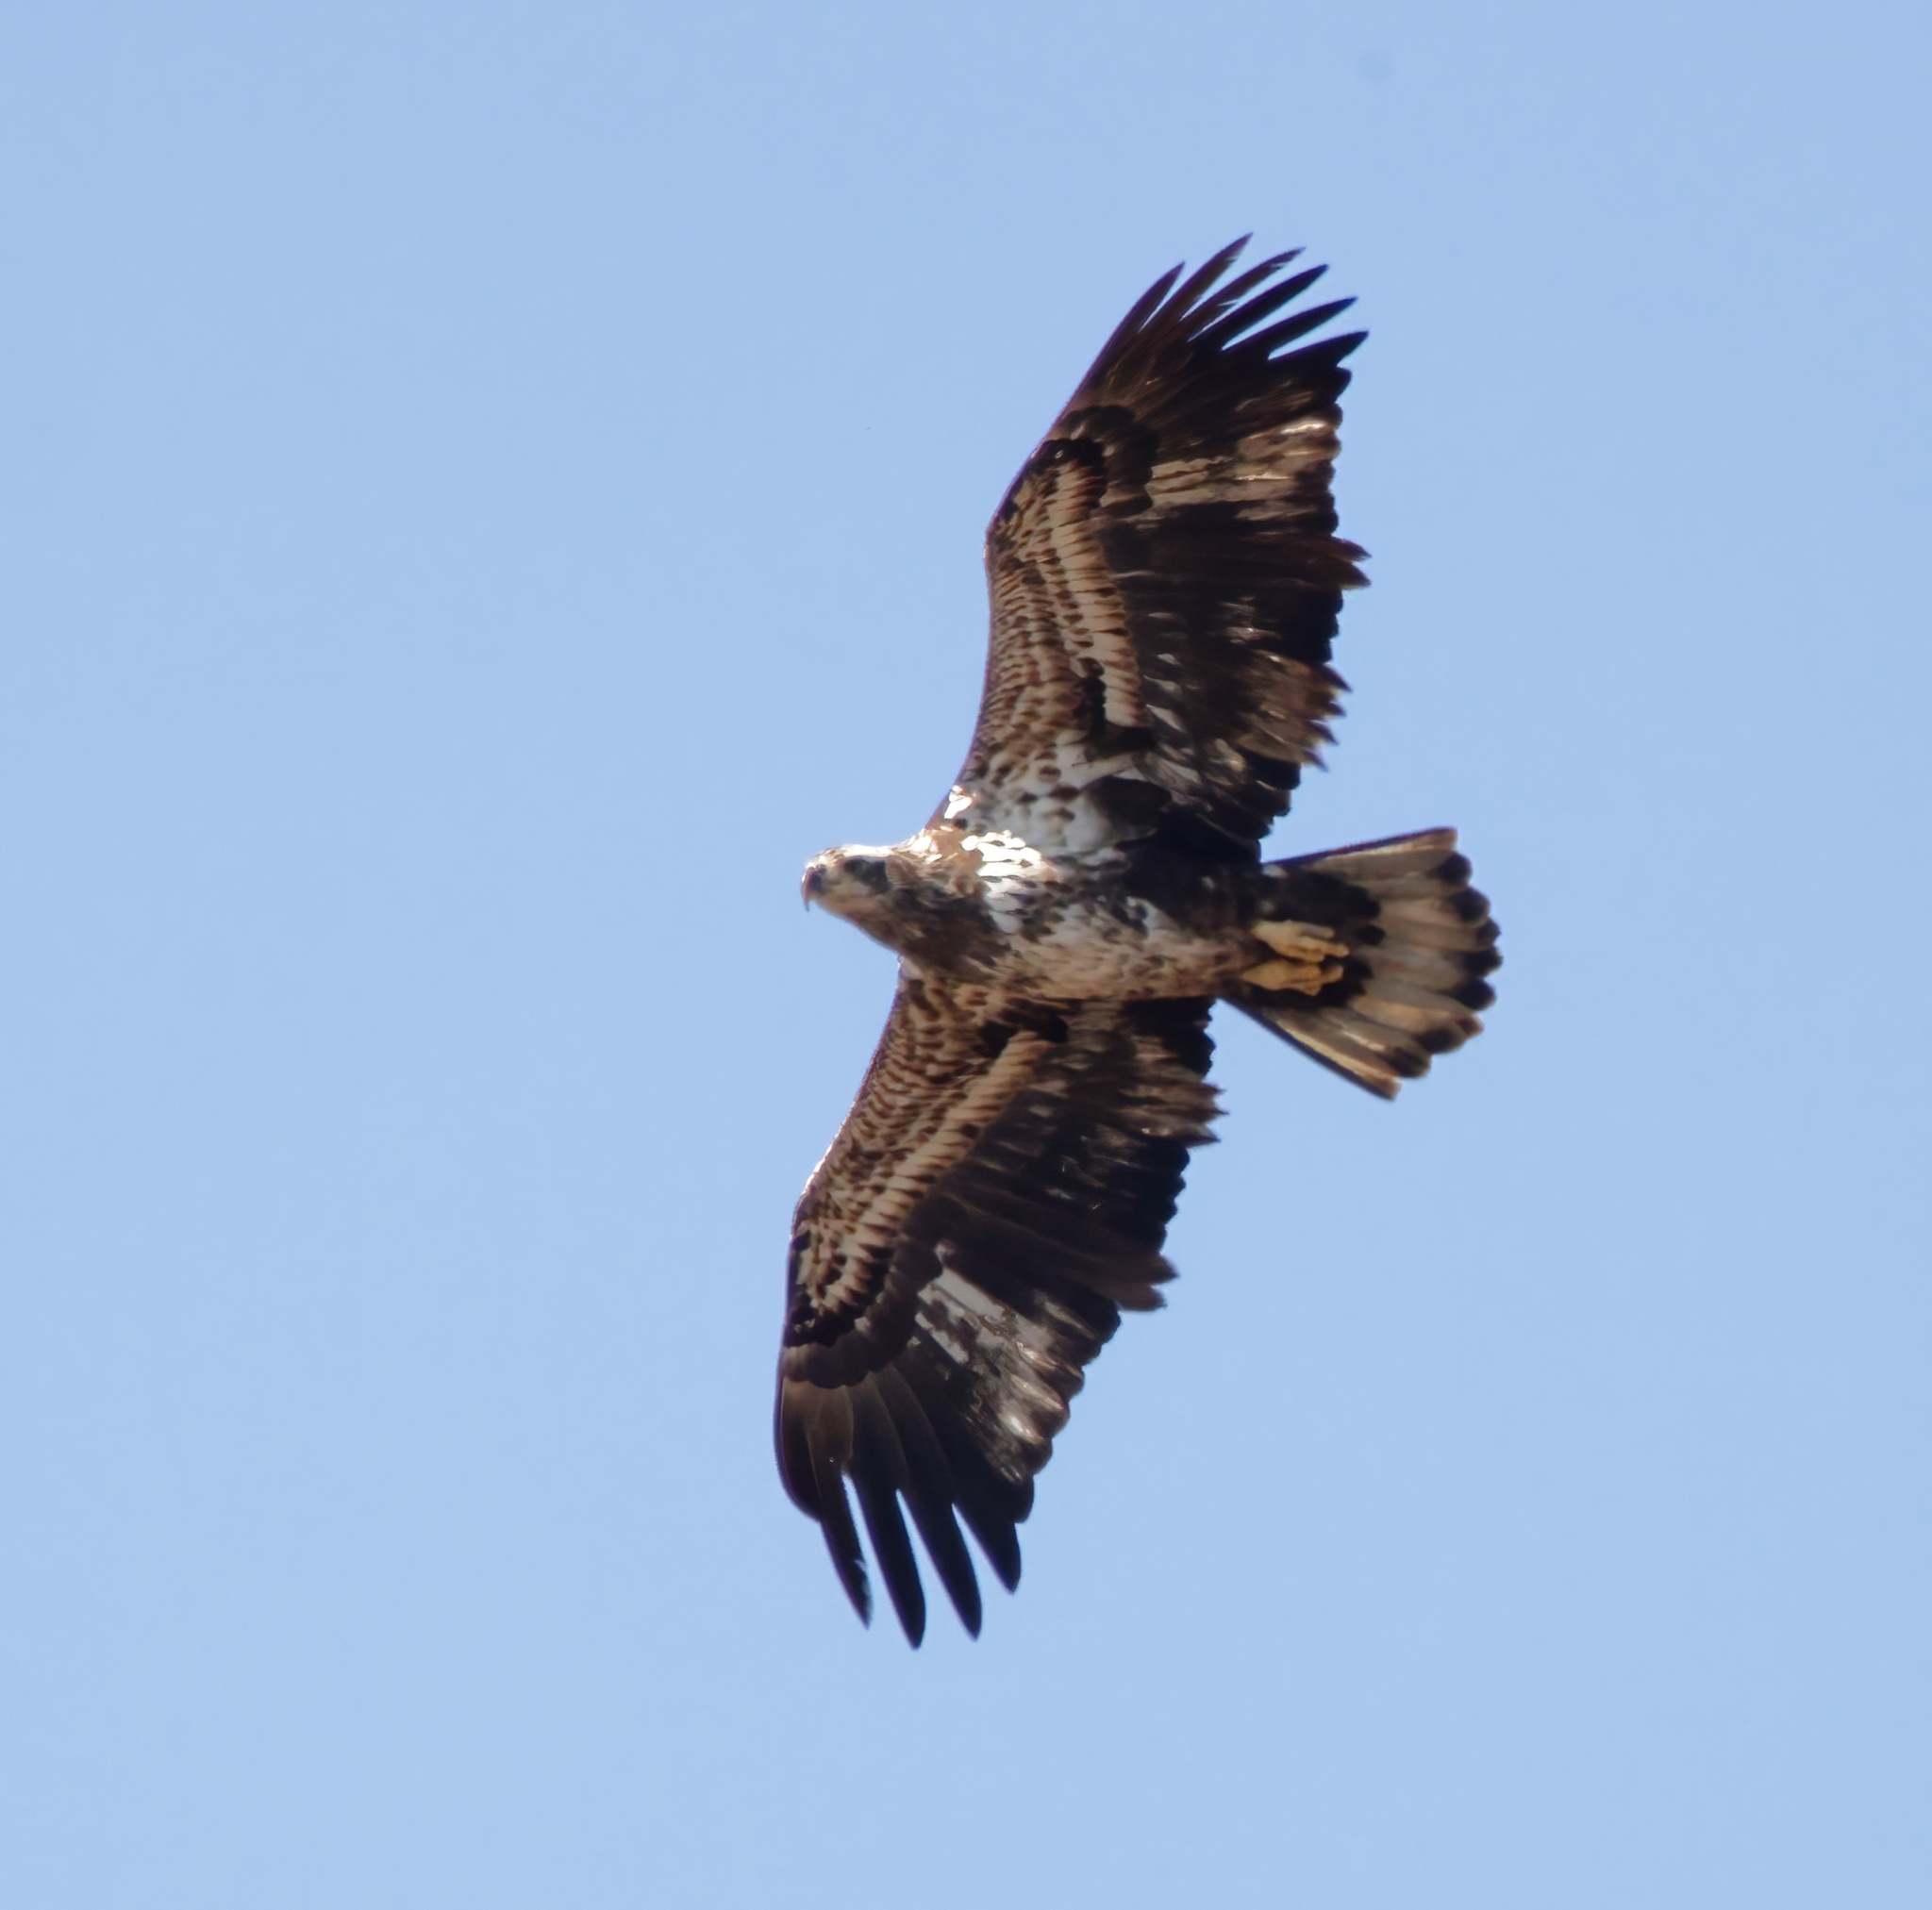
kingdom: Animalia
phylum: Chordata
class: Aves
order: Accipitriformes
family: Accipitridae
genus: Haliaeetus
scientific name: Haliaeetus leucocephalus
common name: Bald eagle
